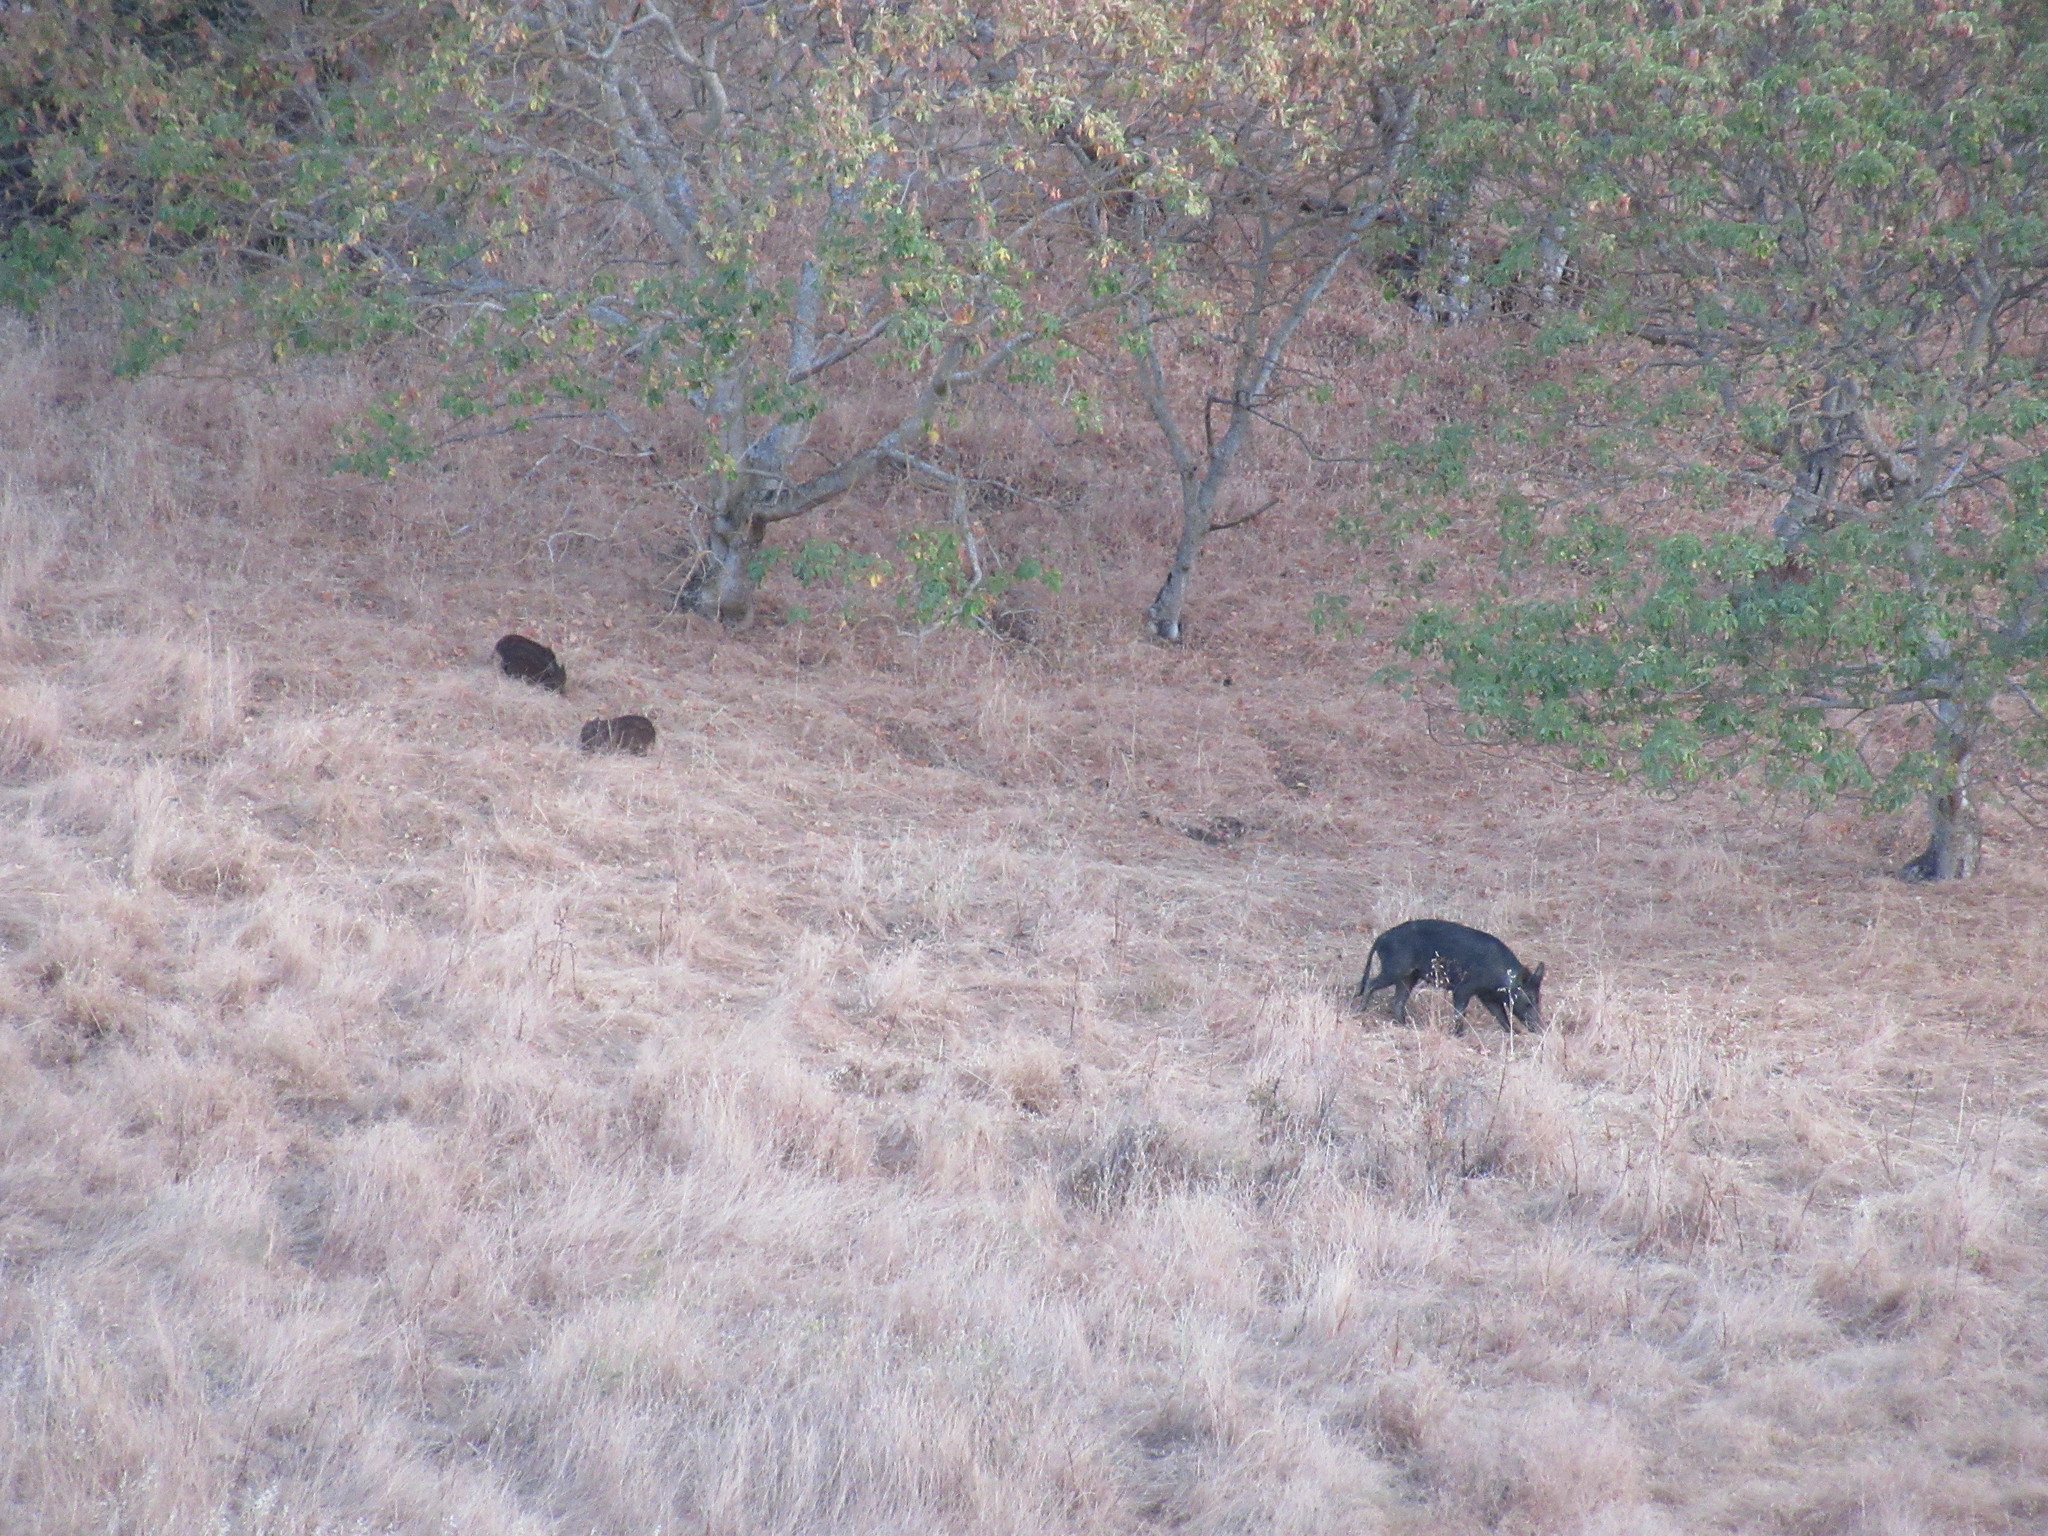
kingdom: Animalia
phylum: Chordata
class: Mammalia
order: Artiodactyla
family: Suidae
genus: Sus
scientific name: Sus scrofa
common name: Wild boar
